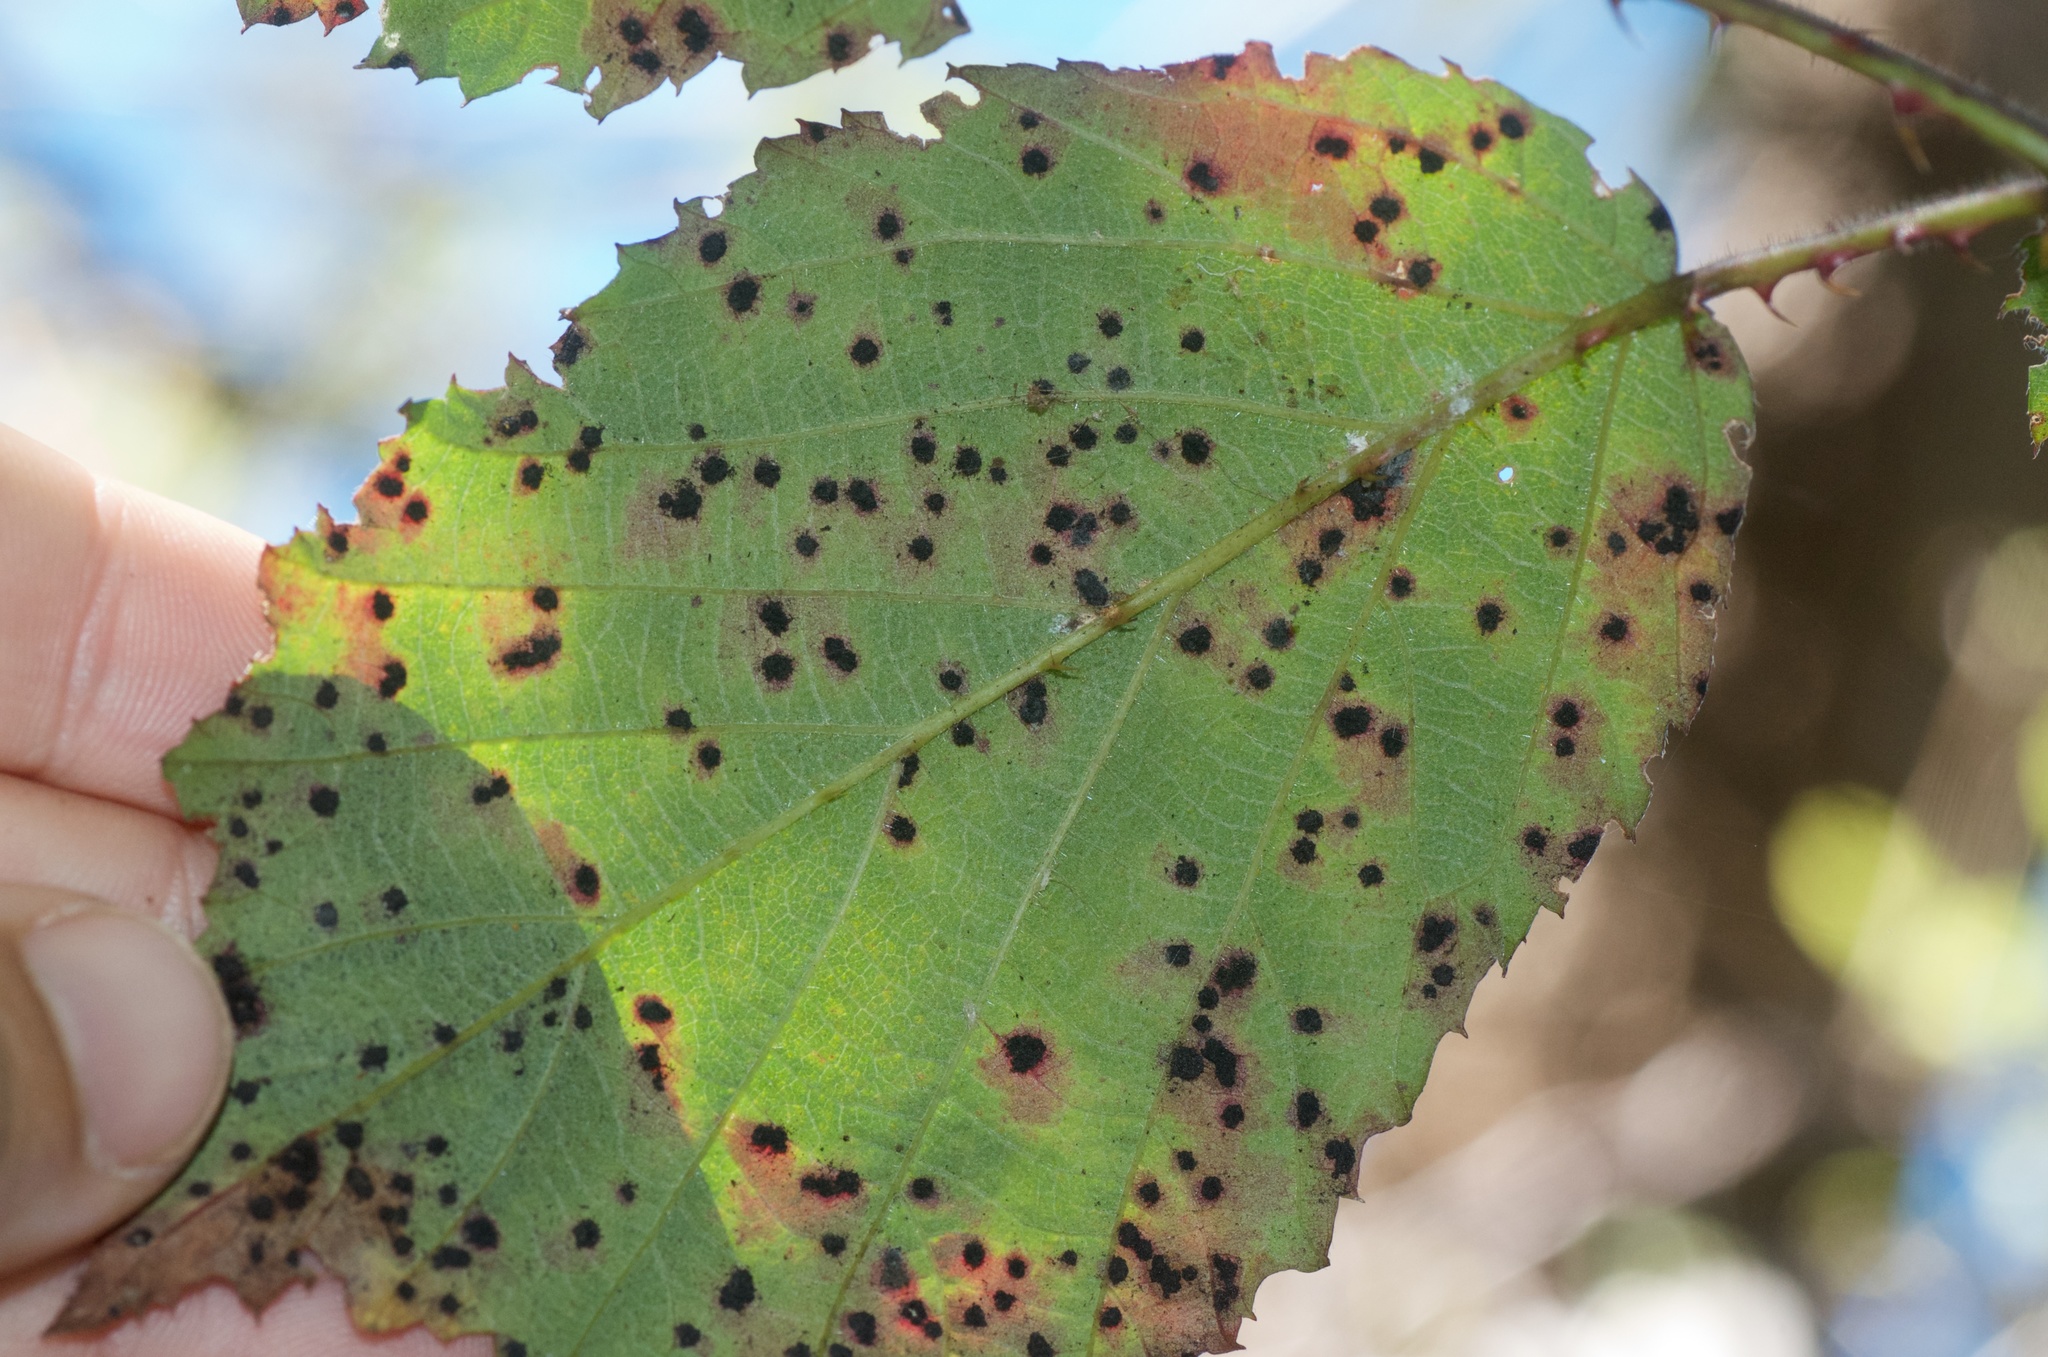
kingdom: Fungi
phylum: Basidiomycota
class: Pucciniomycetes
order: Pucciniales
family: Phragmidiaceae
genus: Phragmidium
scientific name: Phragmidium violaceum
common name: Violet bramble rust
